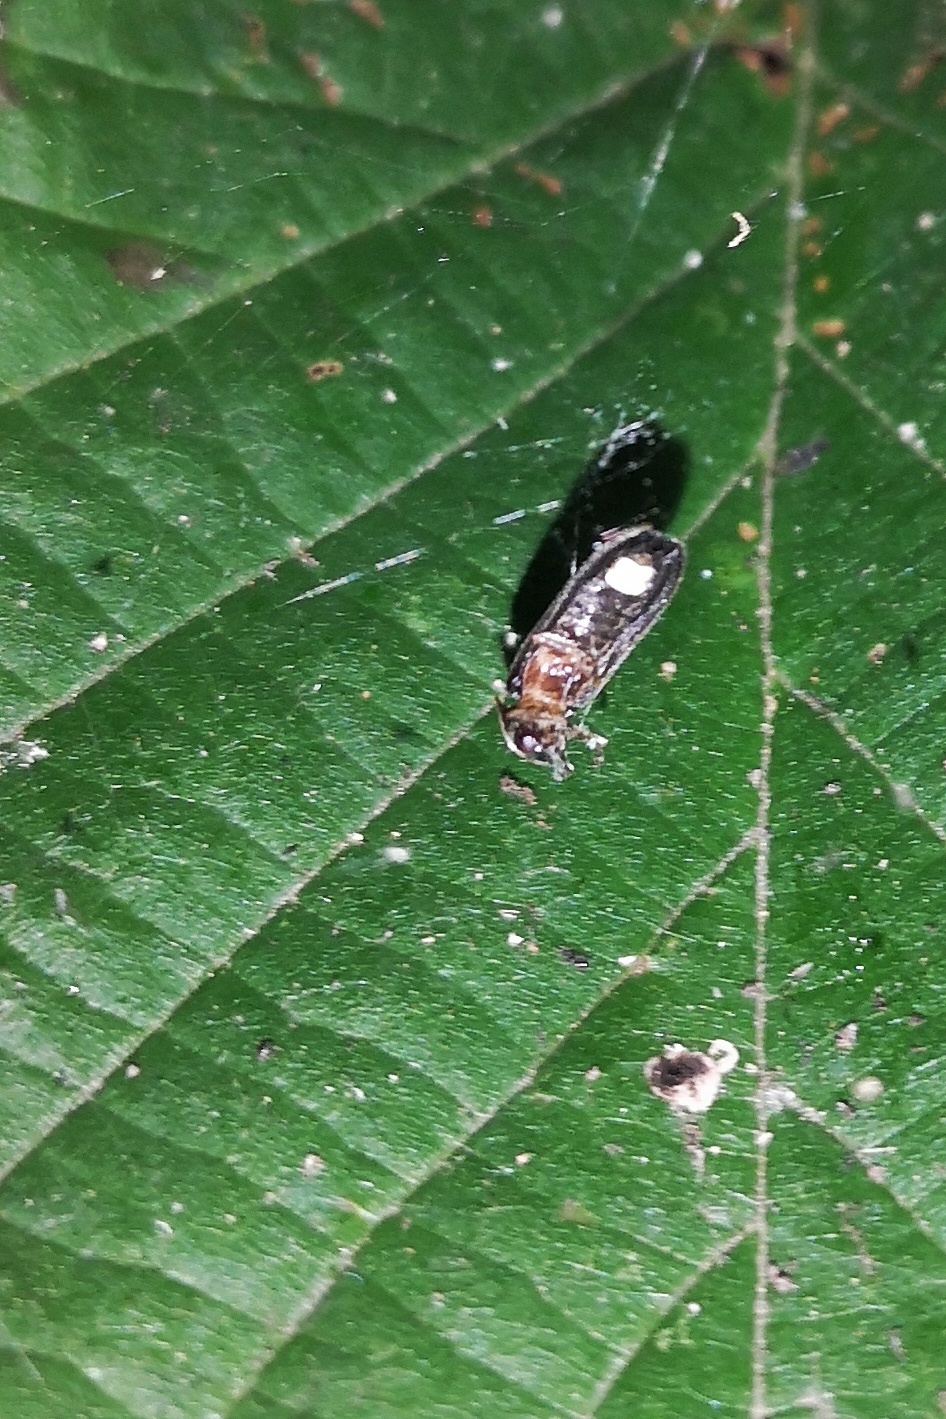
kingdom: Animalia
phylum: Arthropoda
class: Insecta
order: Coleoptera
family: Lampyridae
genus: Lamprohiza
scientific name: Lamprohiza splendidula
